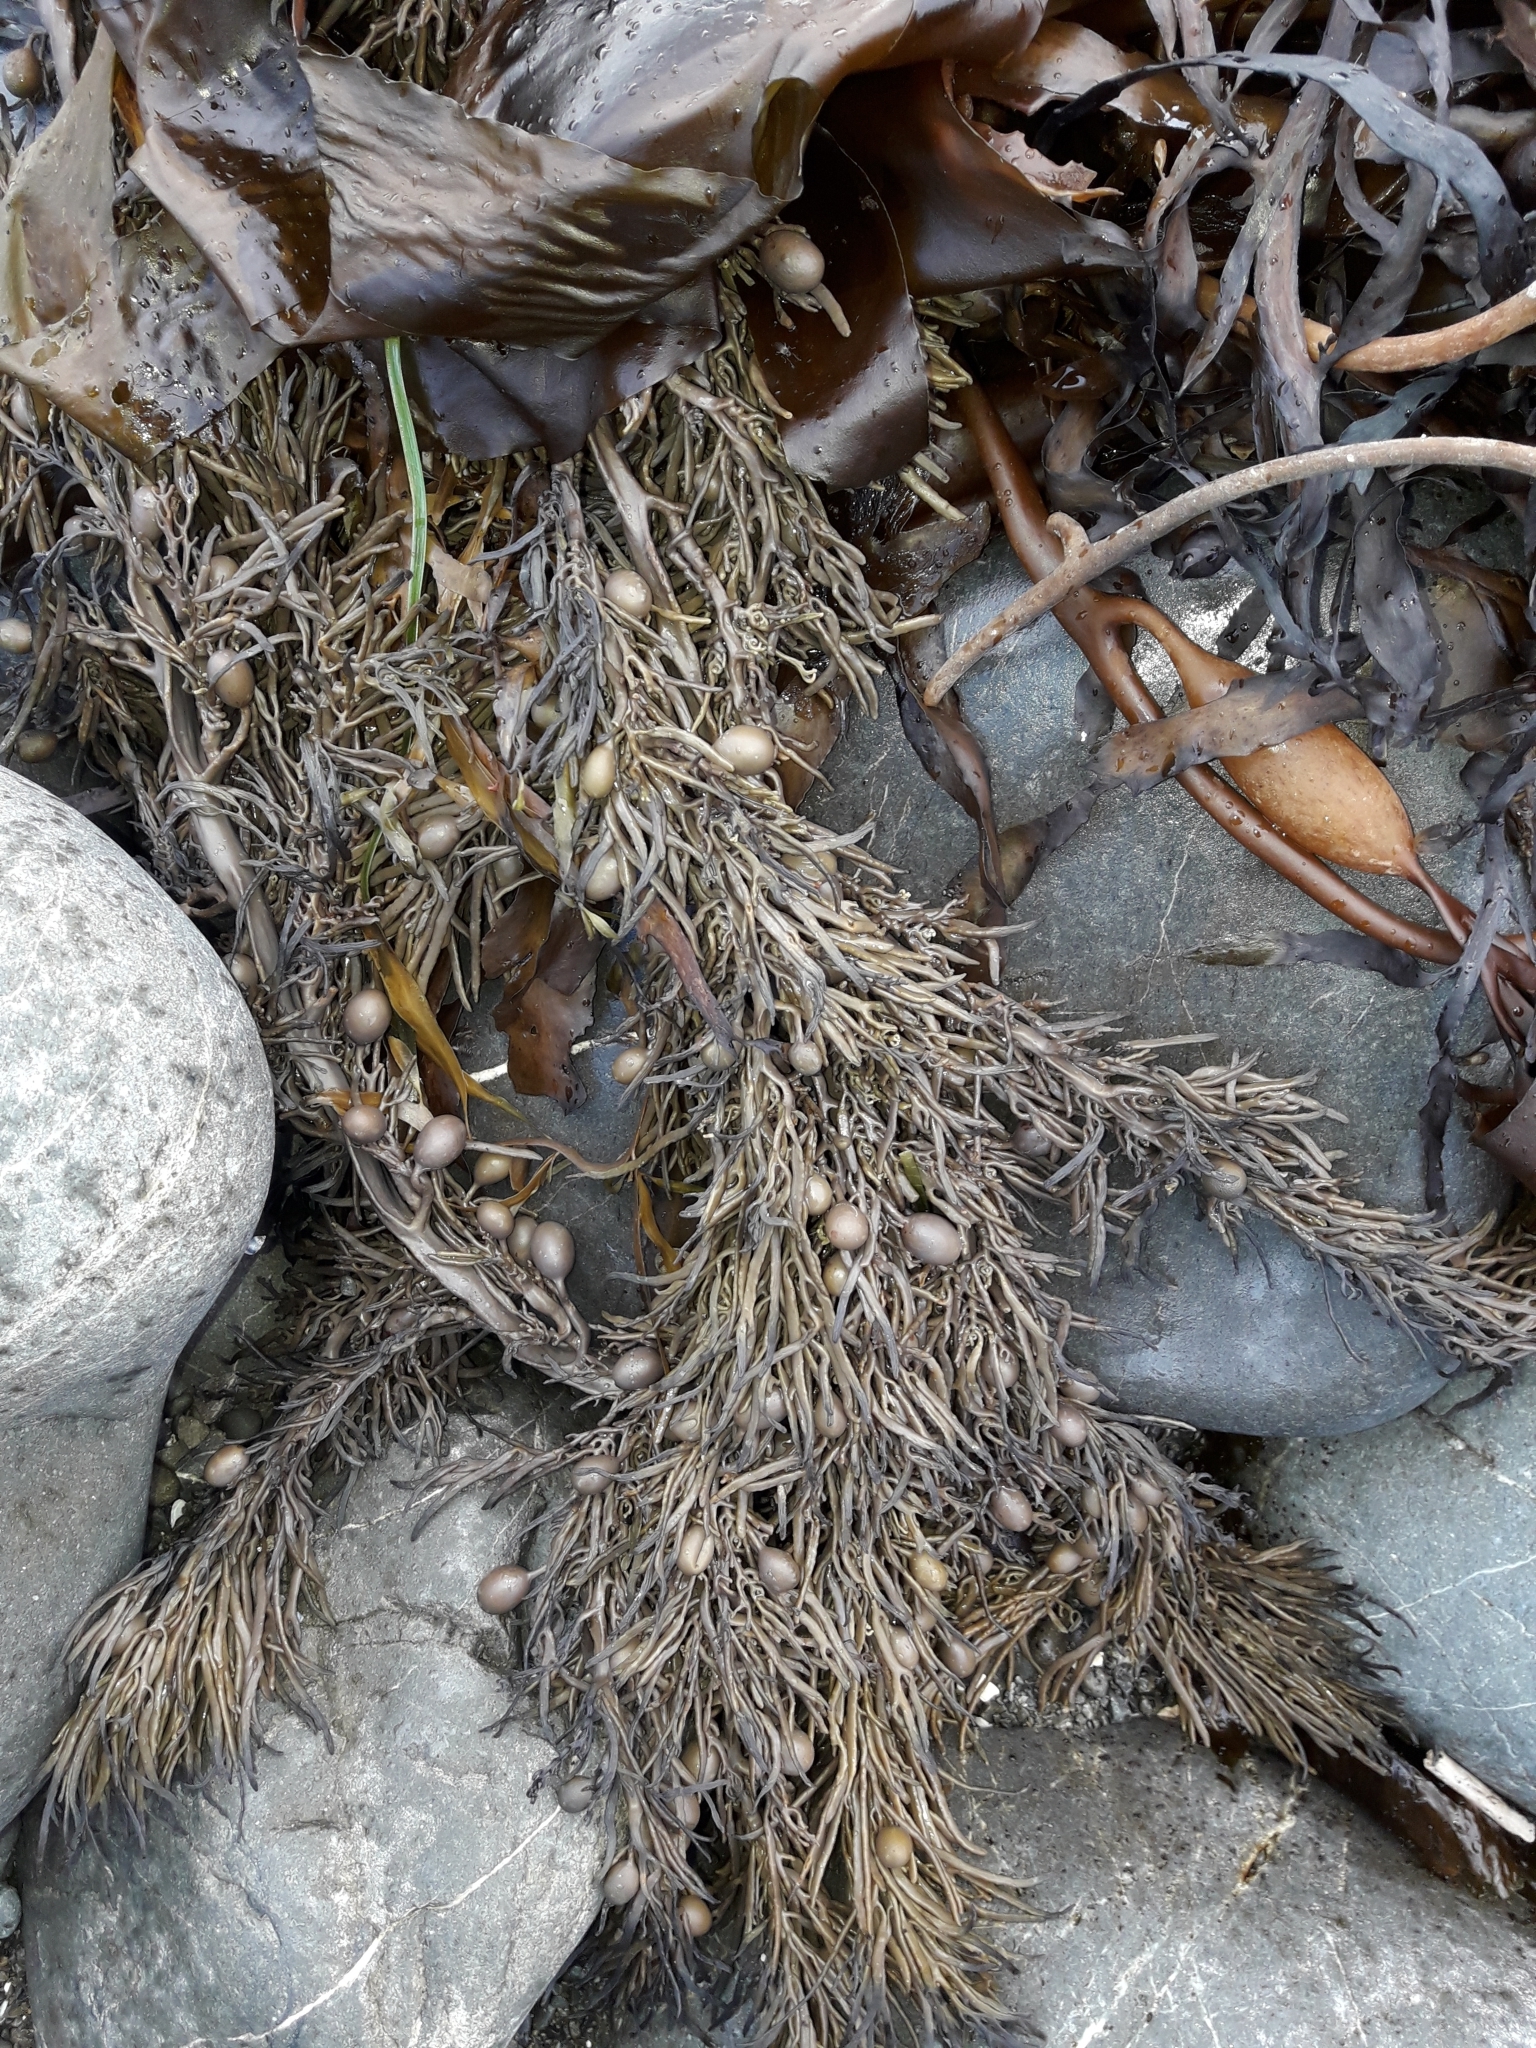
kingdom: Chromista
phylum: Ochrophyta
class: Phaeophyceae
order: Fucales
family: Sargassaceae
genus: Cystophora
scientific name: Cystophora retroflexa
